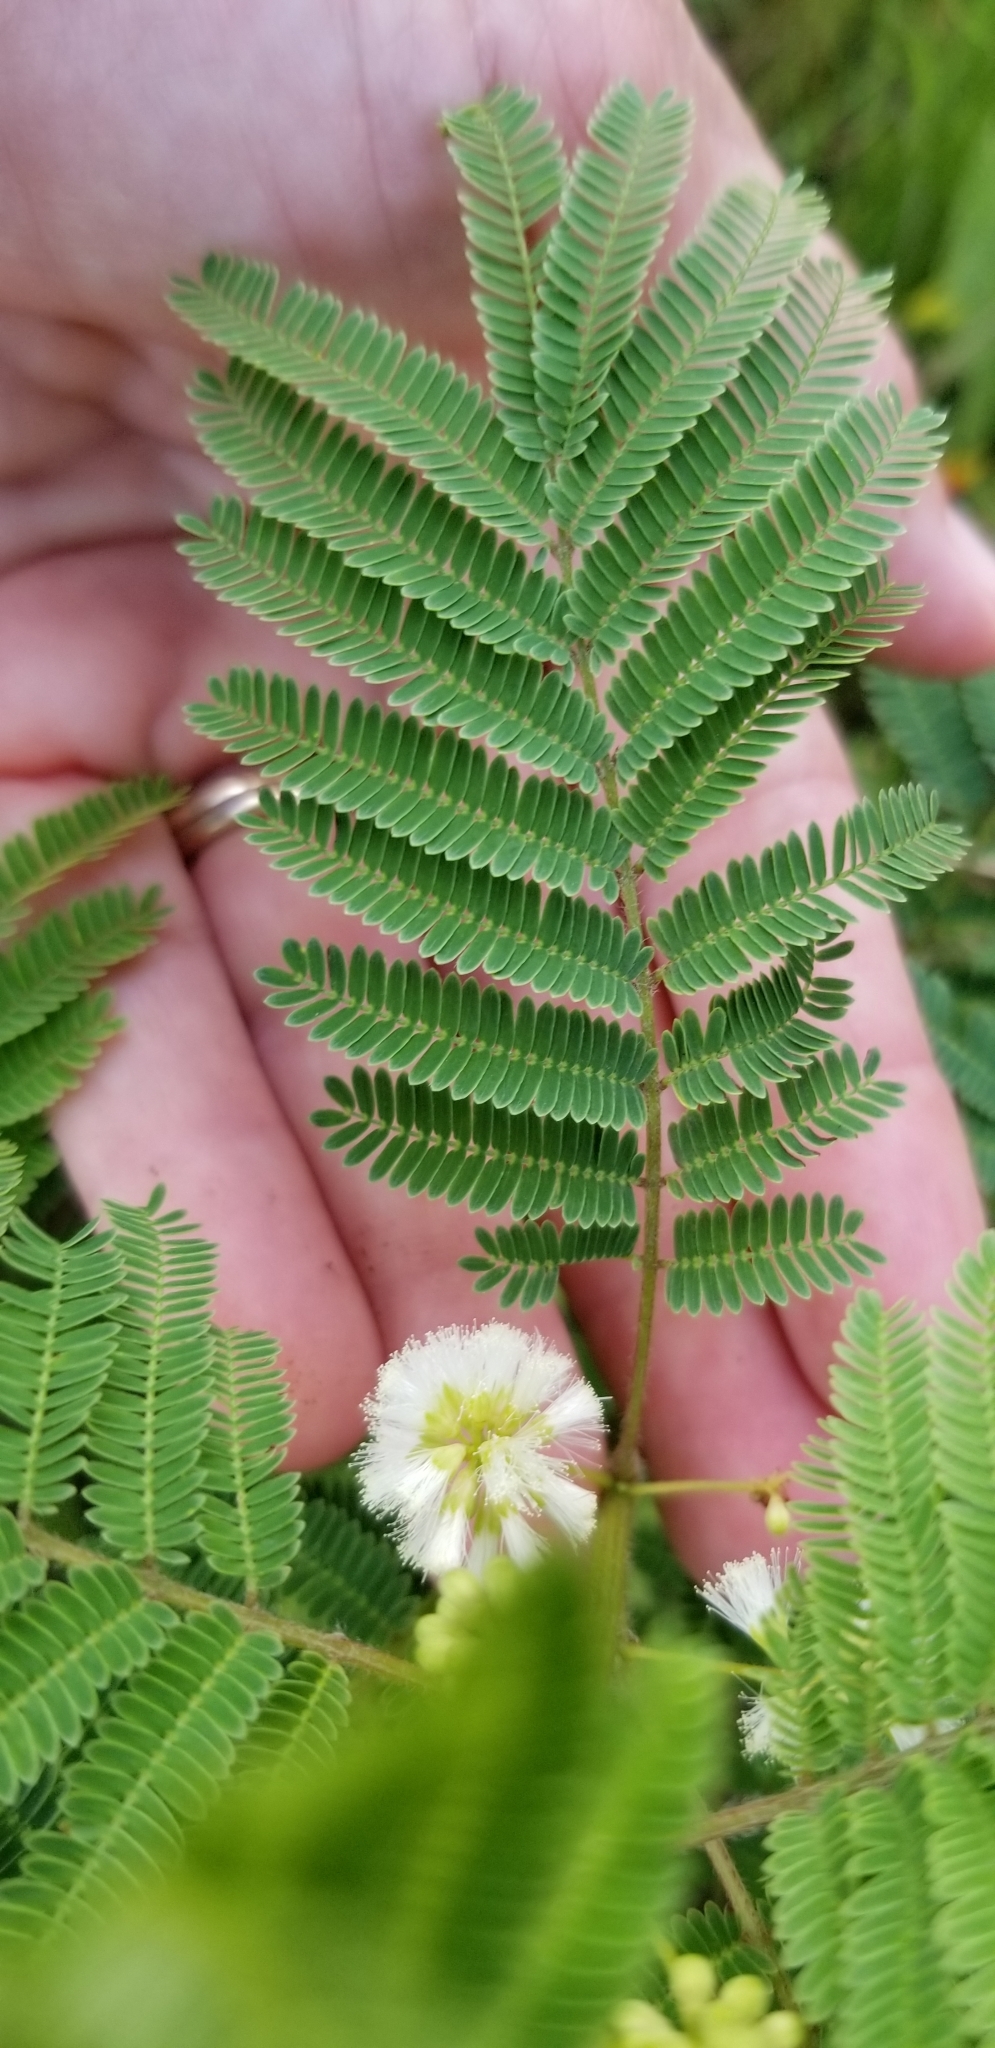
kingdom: Plantae
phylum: Tracheophyta
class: Magnoliopsida
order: Fabales
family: Fabaceae
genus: Acaciella
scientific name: Acaciella angustissima
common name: Prairie acacia
